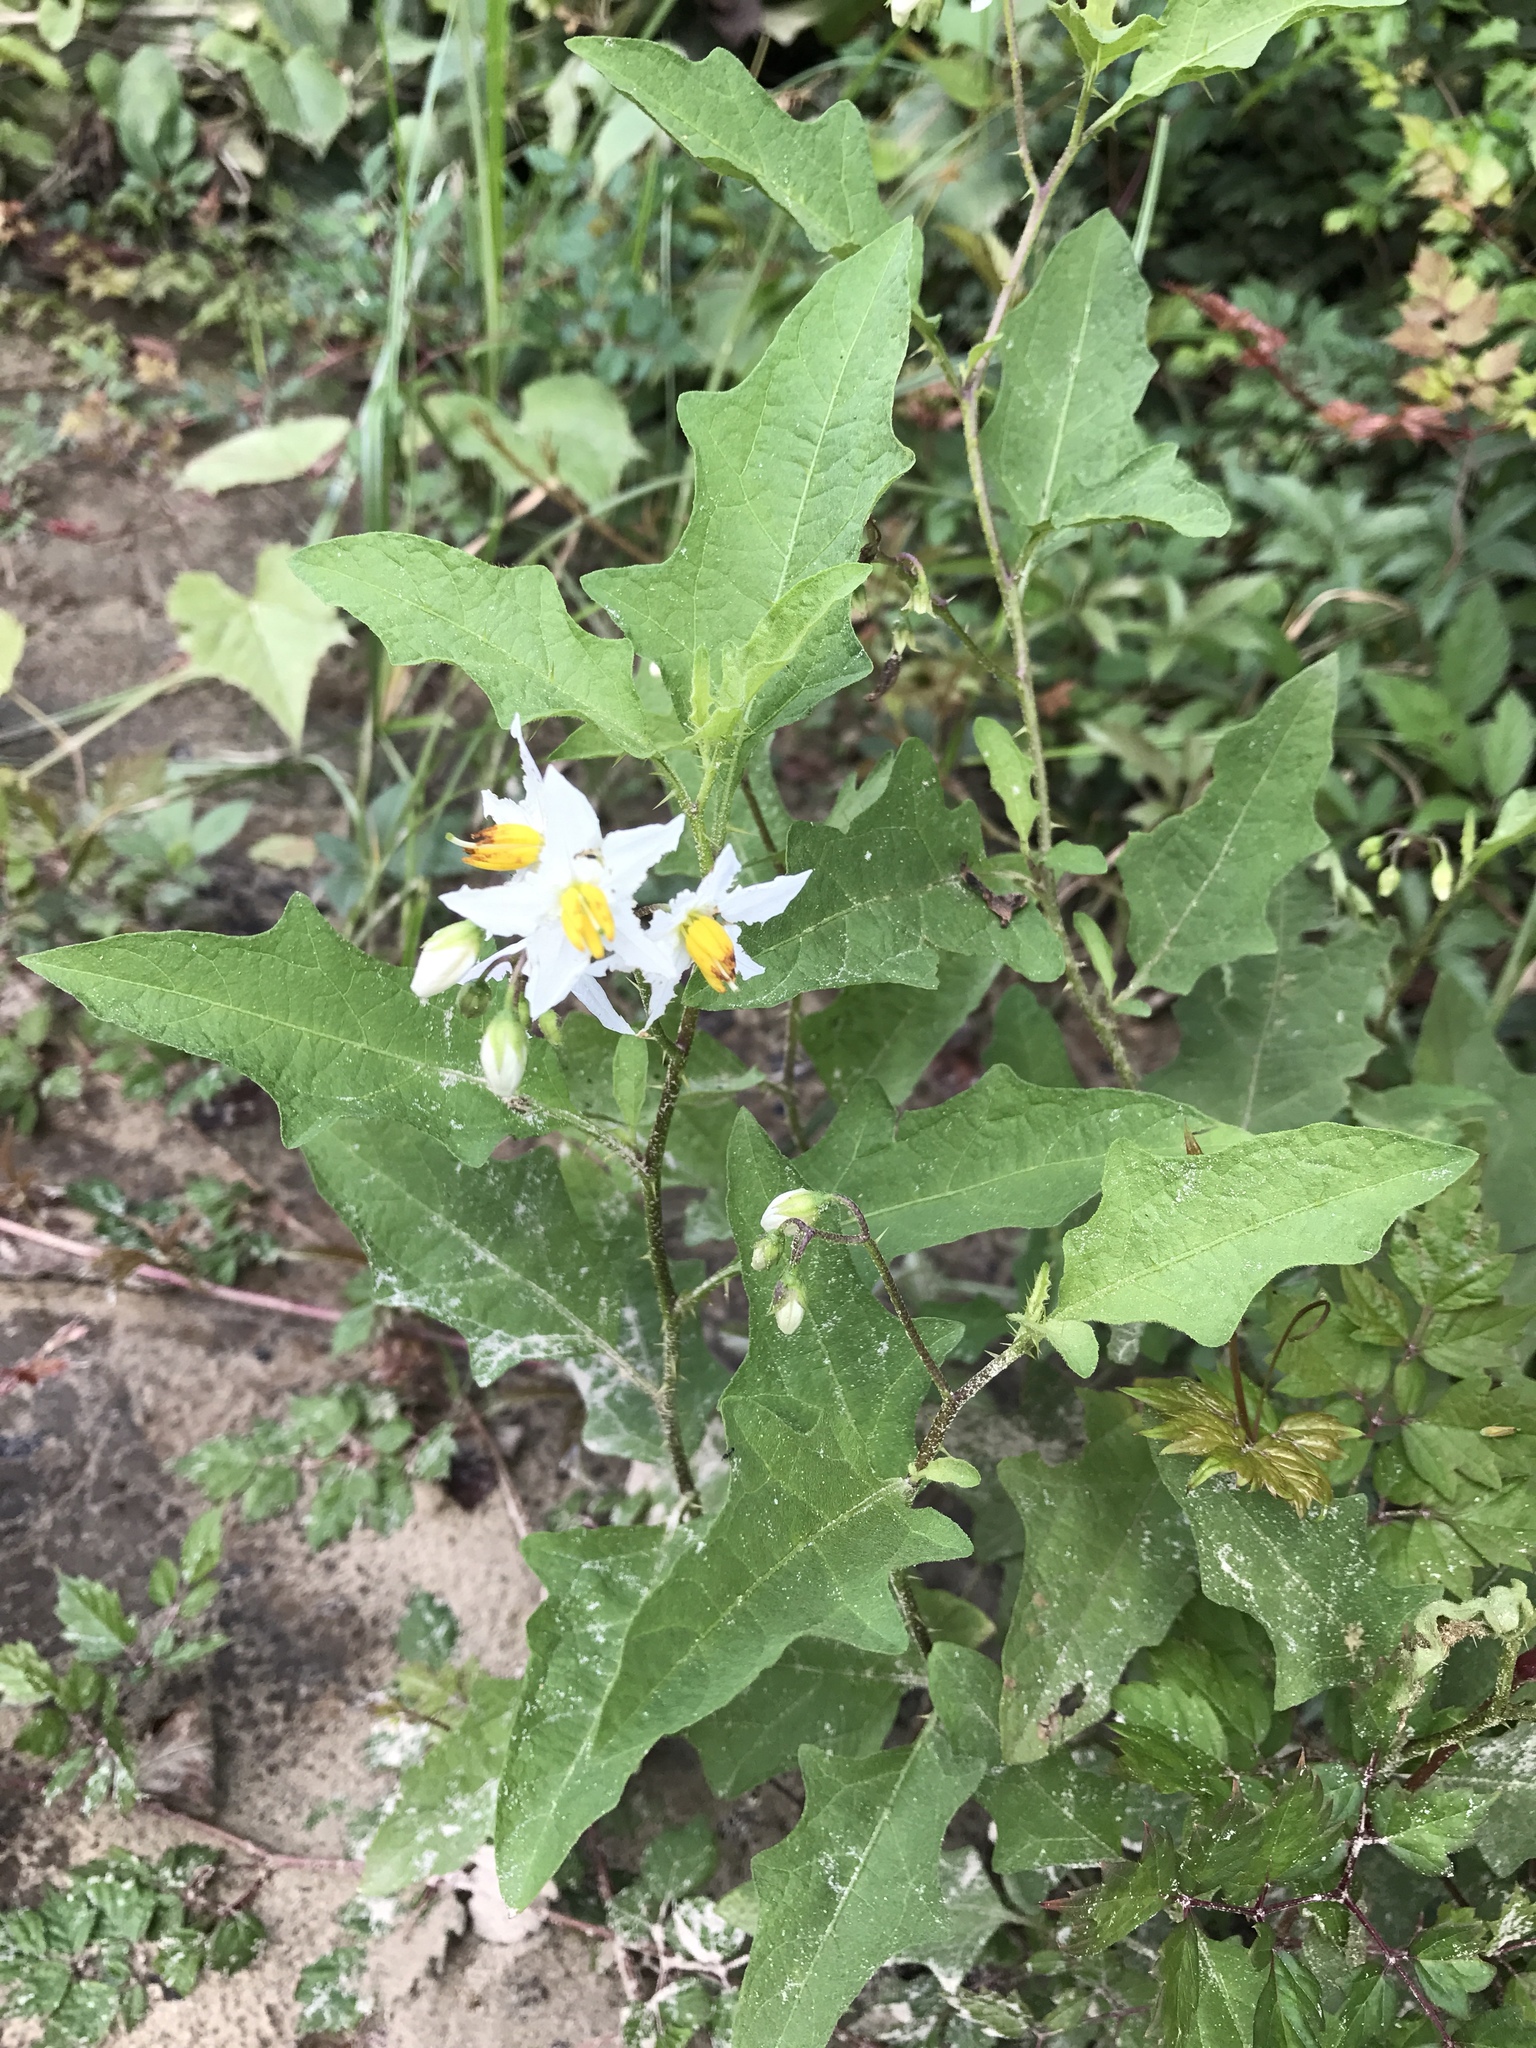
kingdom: Plantae
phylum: Tracheophyta
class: Magnoliopsida
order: Solanales
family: Solanaceae
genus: Solanum
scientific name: Solanum carolinense
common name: Horse-nettle
